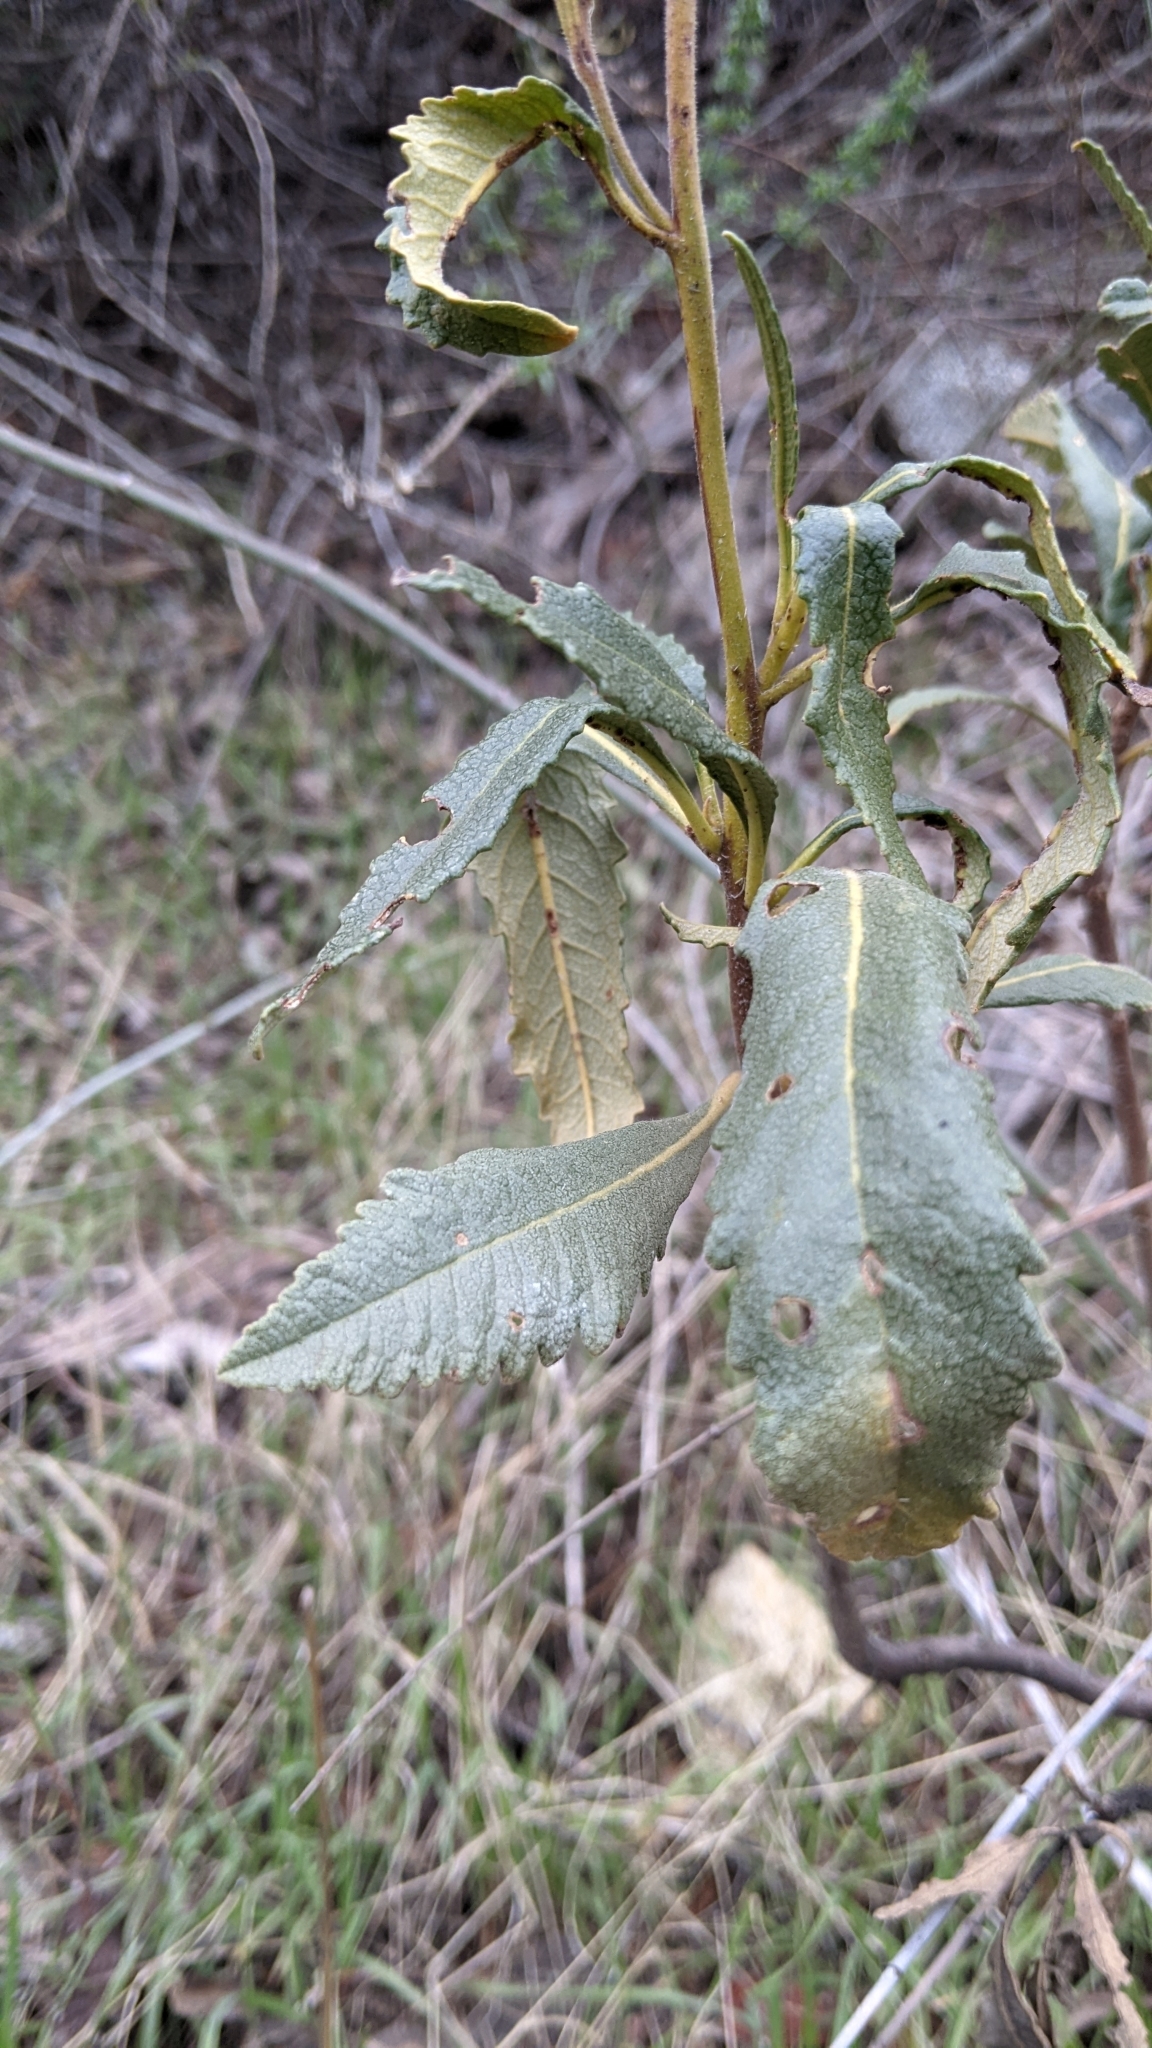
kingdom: Plantae
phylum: Tracheophyta
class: Magnoliopsida
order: Boraginales
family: Namaceae
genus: Eriodictyon
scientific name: Eriodictyon trichocalyx
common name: Hairy yerba-santa
